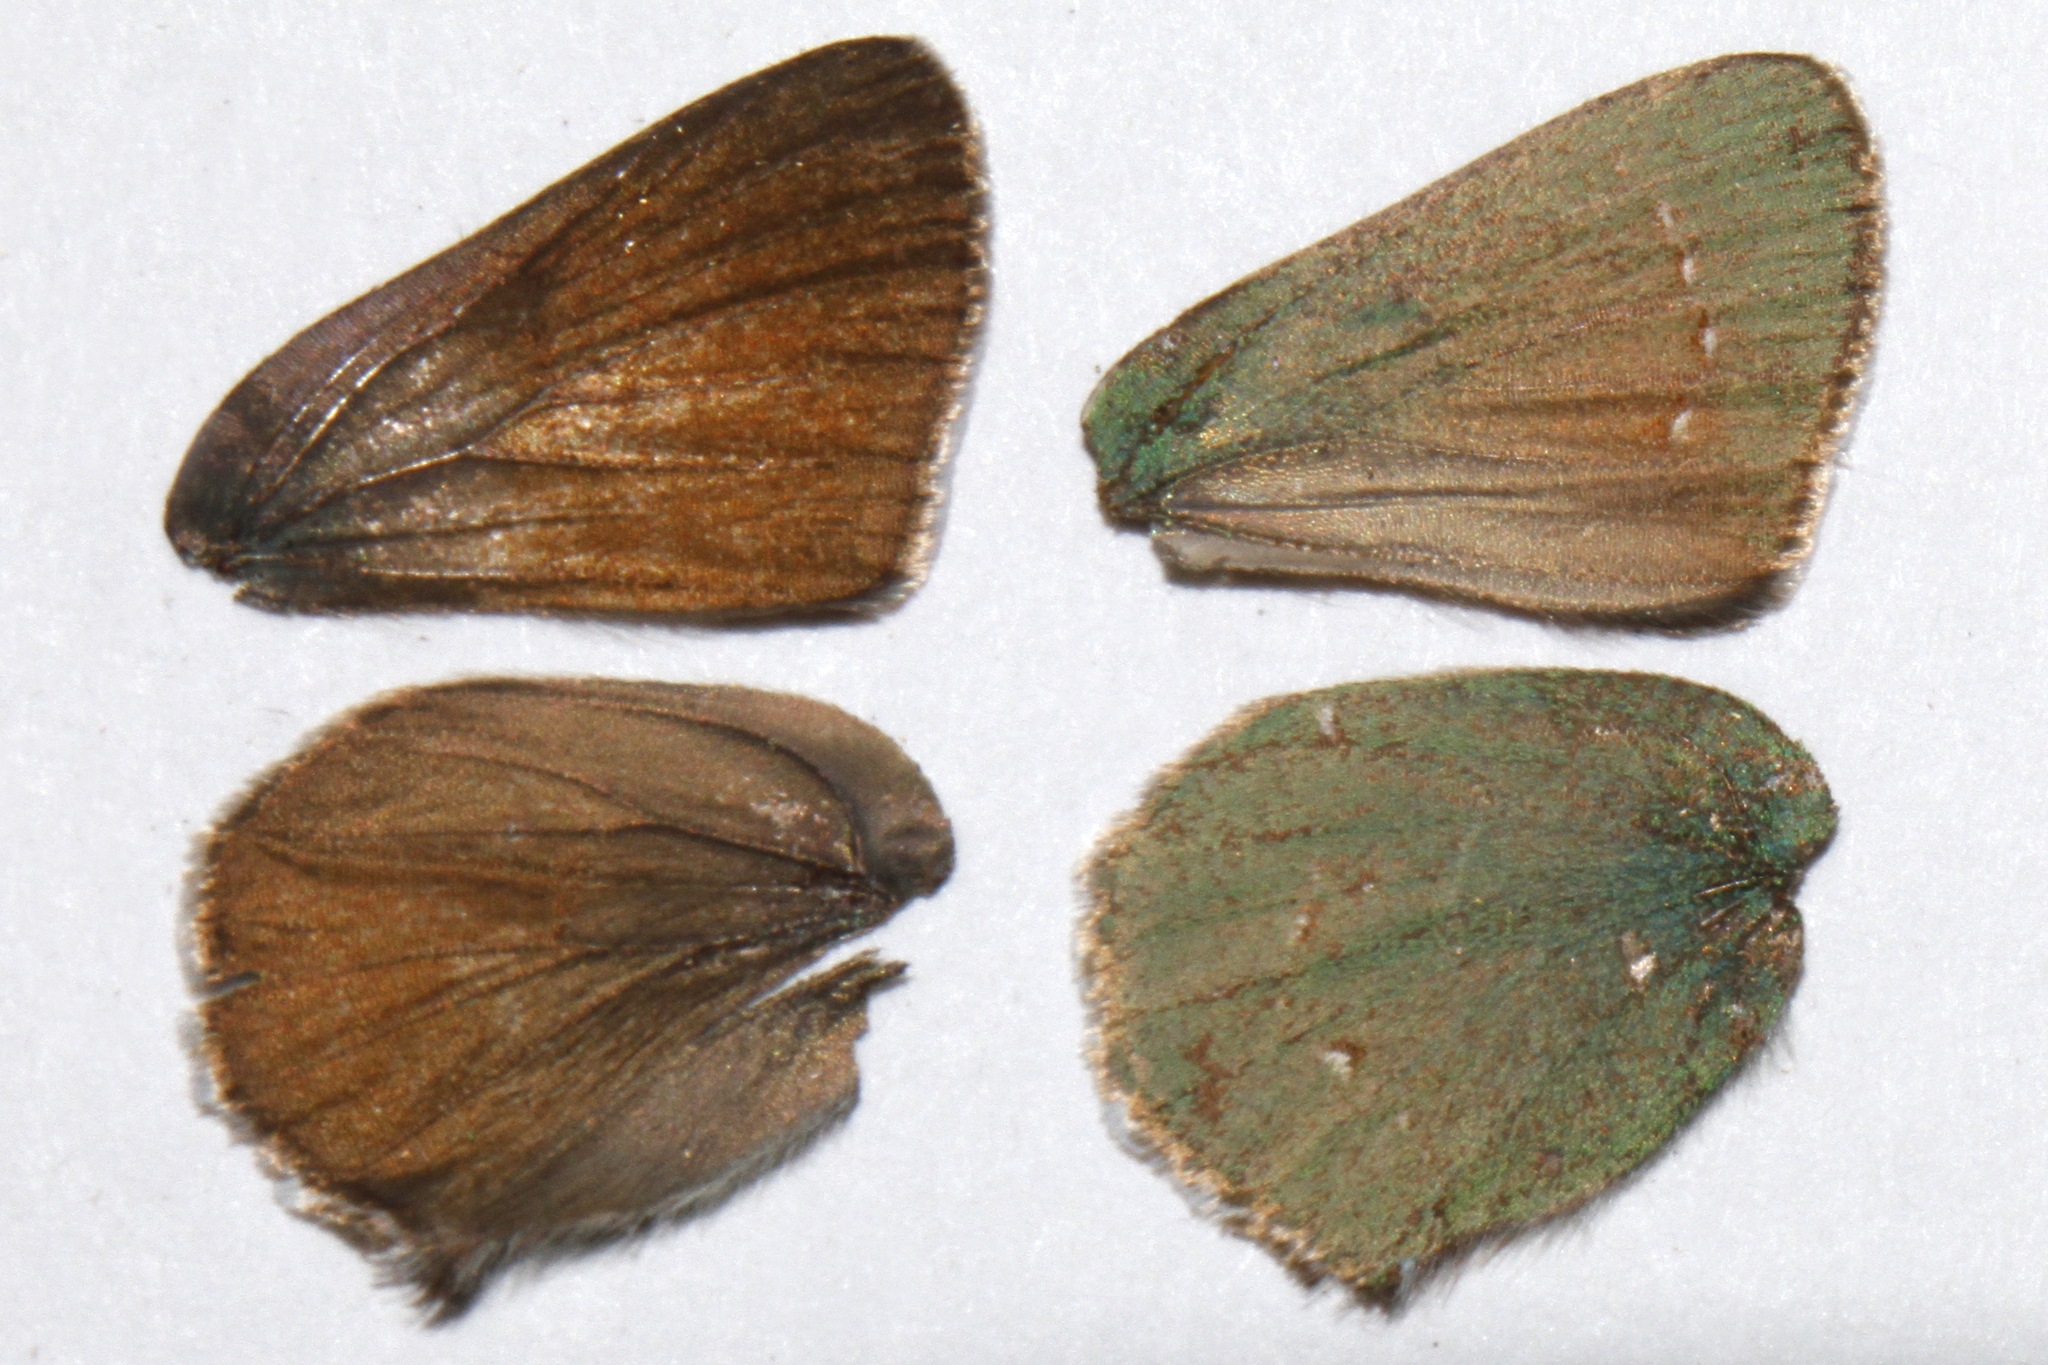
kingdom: Animalia
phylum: Arthropoda
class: Insecta
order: Lepidoptera
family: Lycaenidae
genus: Callophrys
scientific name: Callophrys affinis
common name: Western green hairstreak
